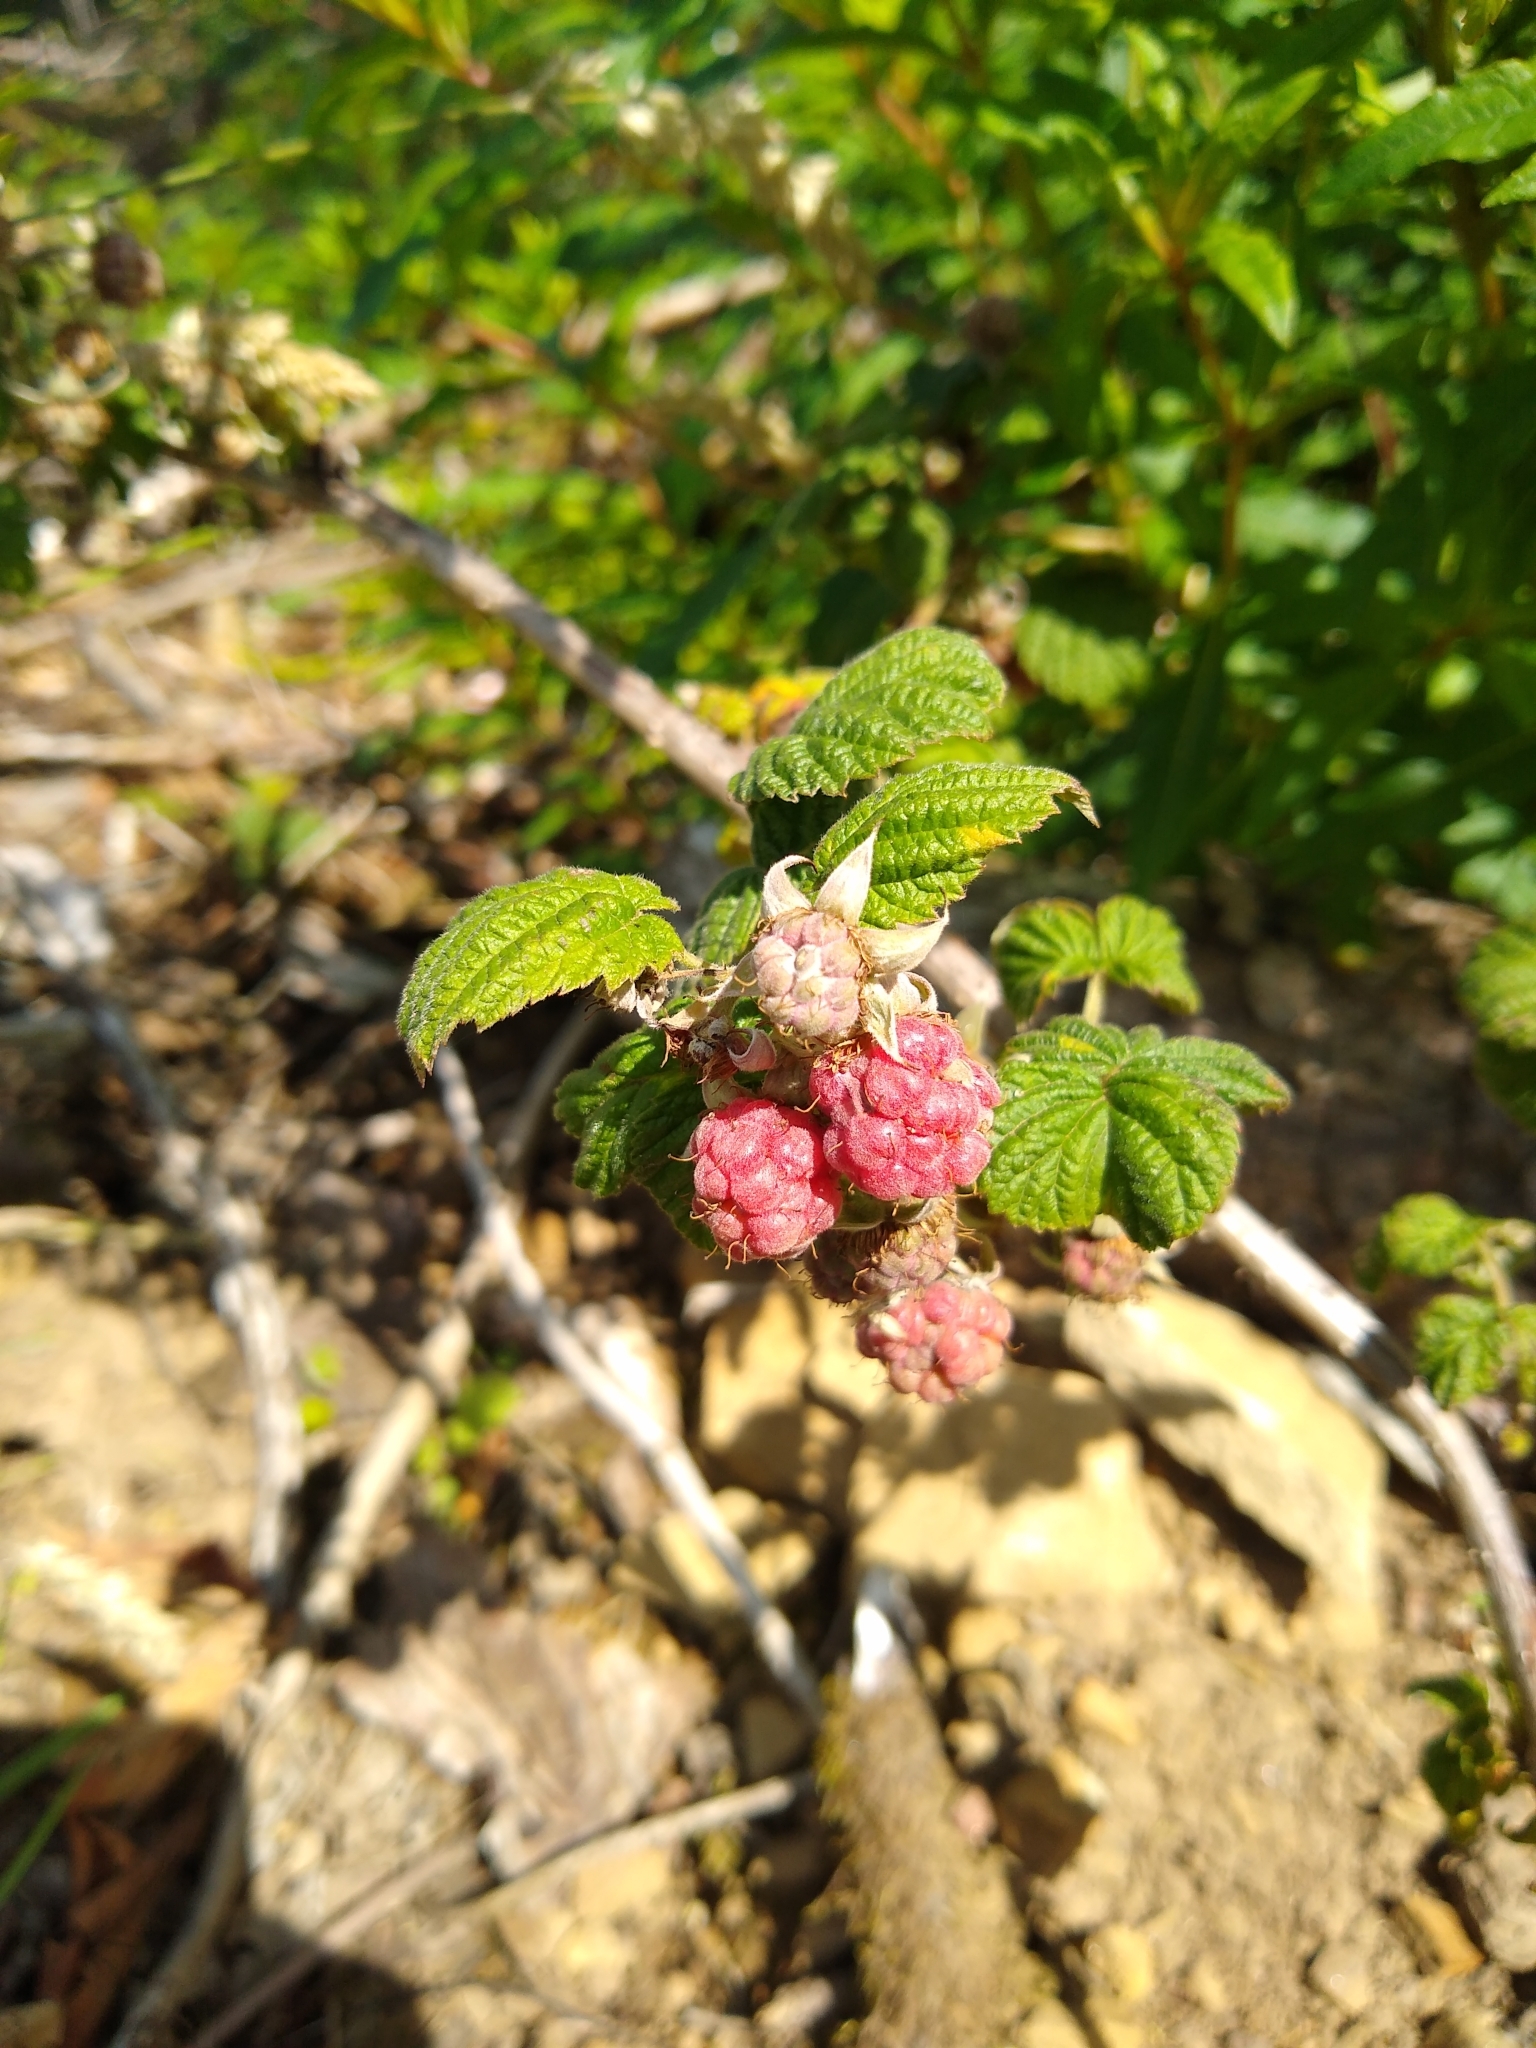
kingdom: Plantae
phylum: Tracheophyta
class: Magnoliopsida
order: Rosales
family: Rosaceae
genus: Rubus
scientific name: Rubus idaeus
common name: Raspberry
